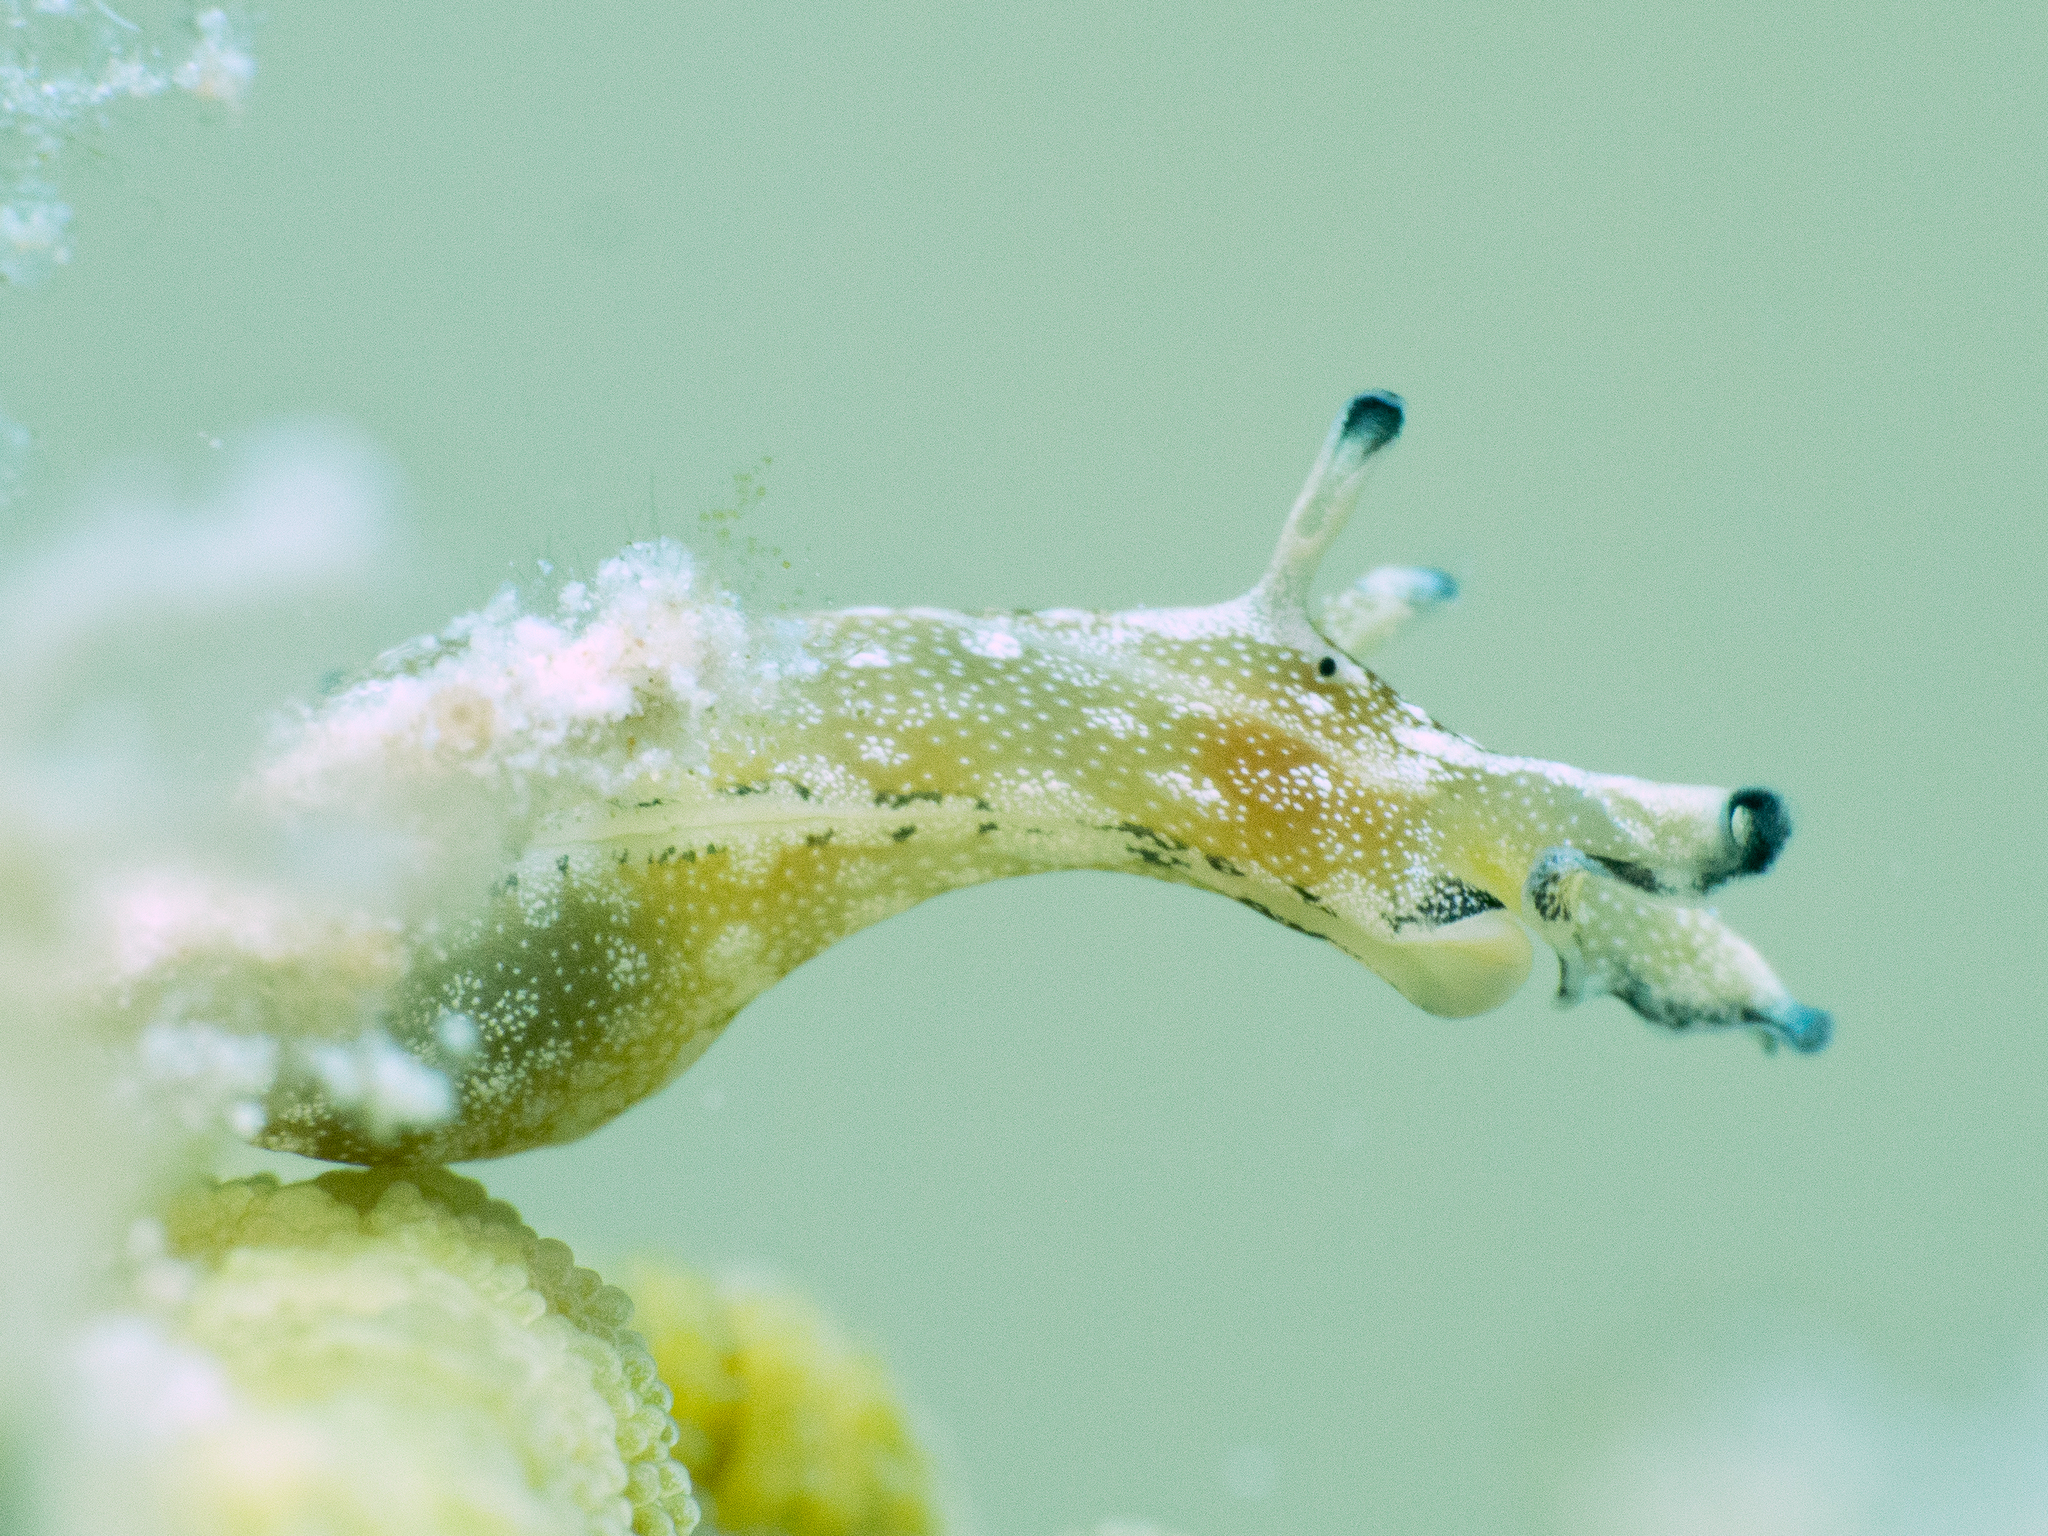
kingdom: Animalia
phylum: Mollusca
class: Gastropoda
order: Aplysiida
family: Aplysiidae
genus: Aplysia
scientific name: Aplysia parvula
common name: Dwarf sea hare
